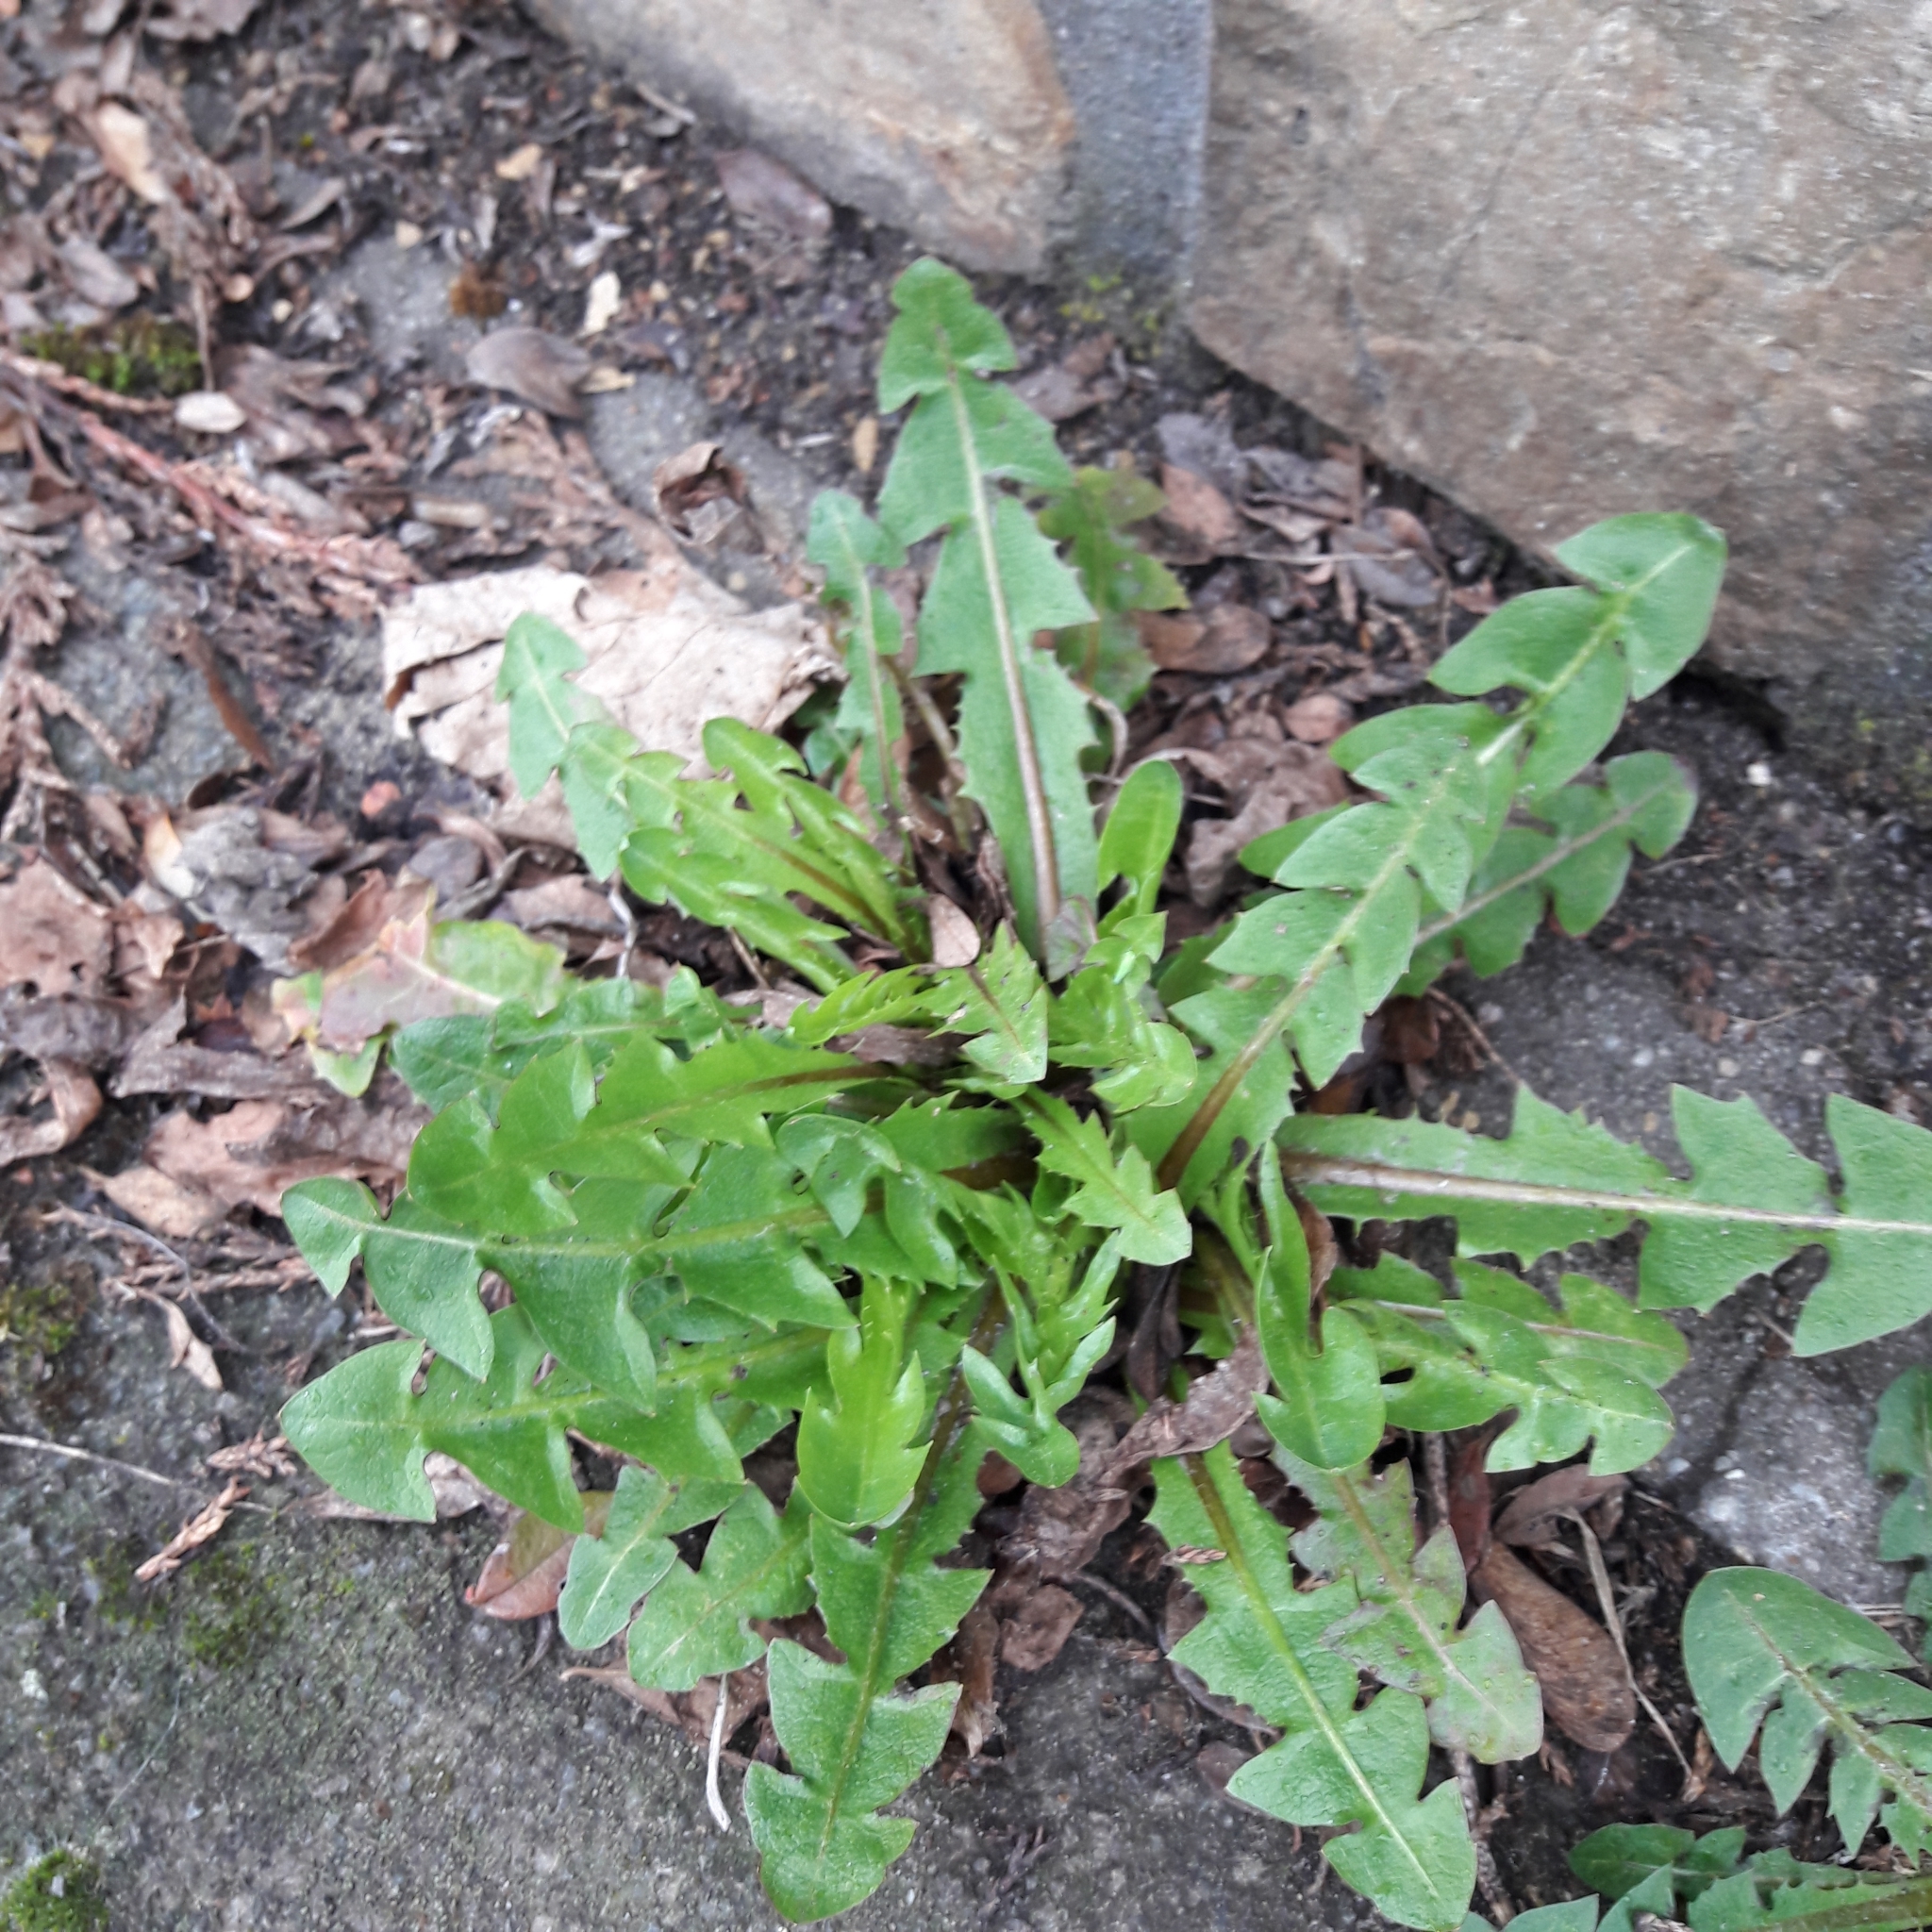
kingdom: Plantae
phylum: Tracheophyta
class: Magnoliopsida
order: Asterales
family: Asteraceae
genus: Taraxacum
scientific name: Taraxacum officinale
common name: Common dandelion
